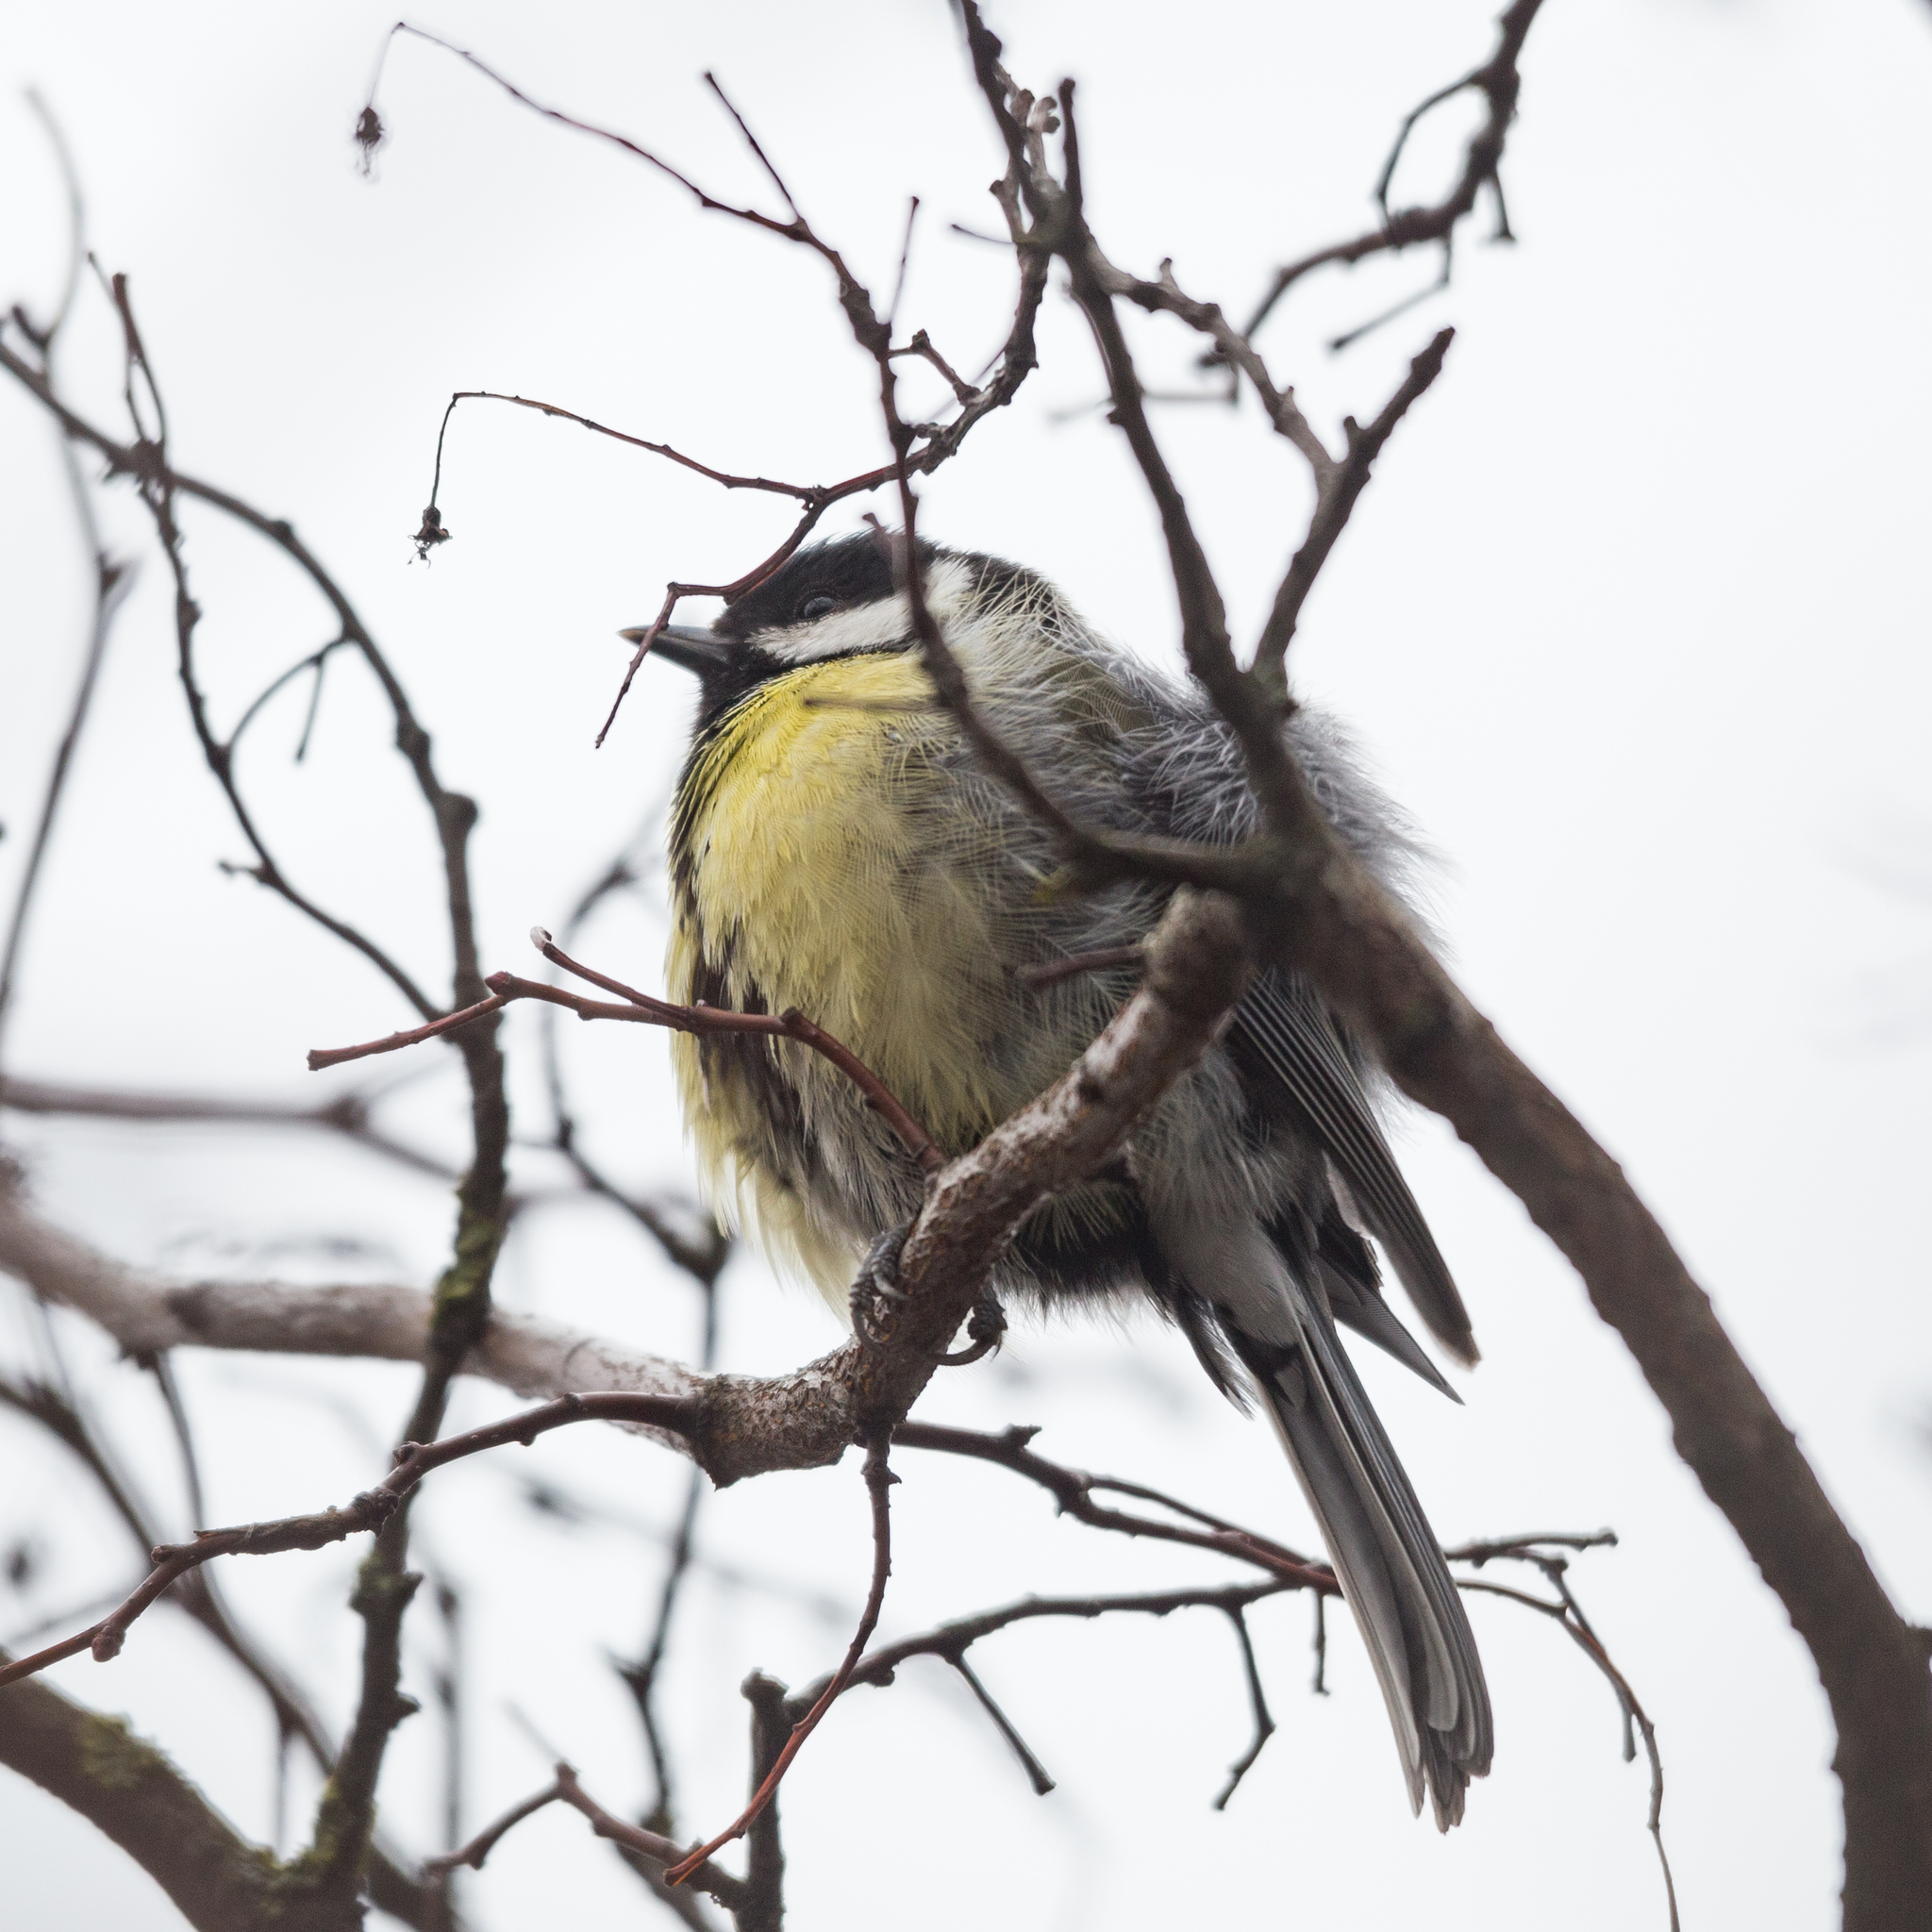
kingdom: Animalia
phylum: Chordata
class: Aves
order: Passeriformes
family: Paridae
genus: Parus
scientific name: Parus major
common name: Great tit
